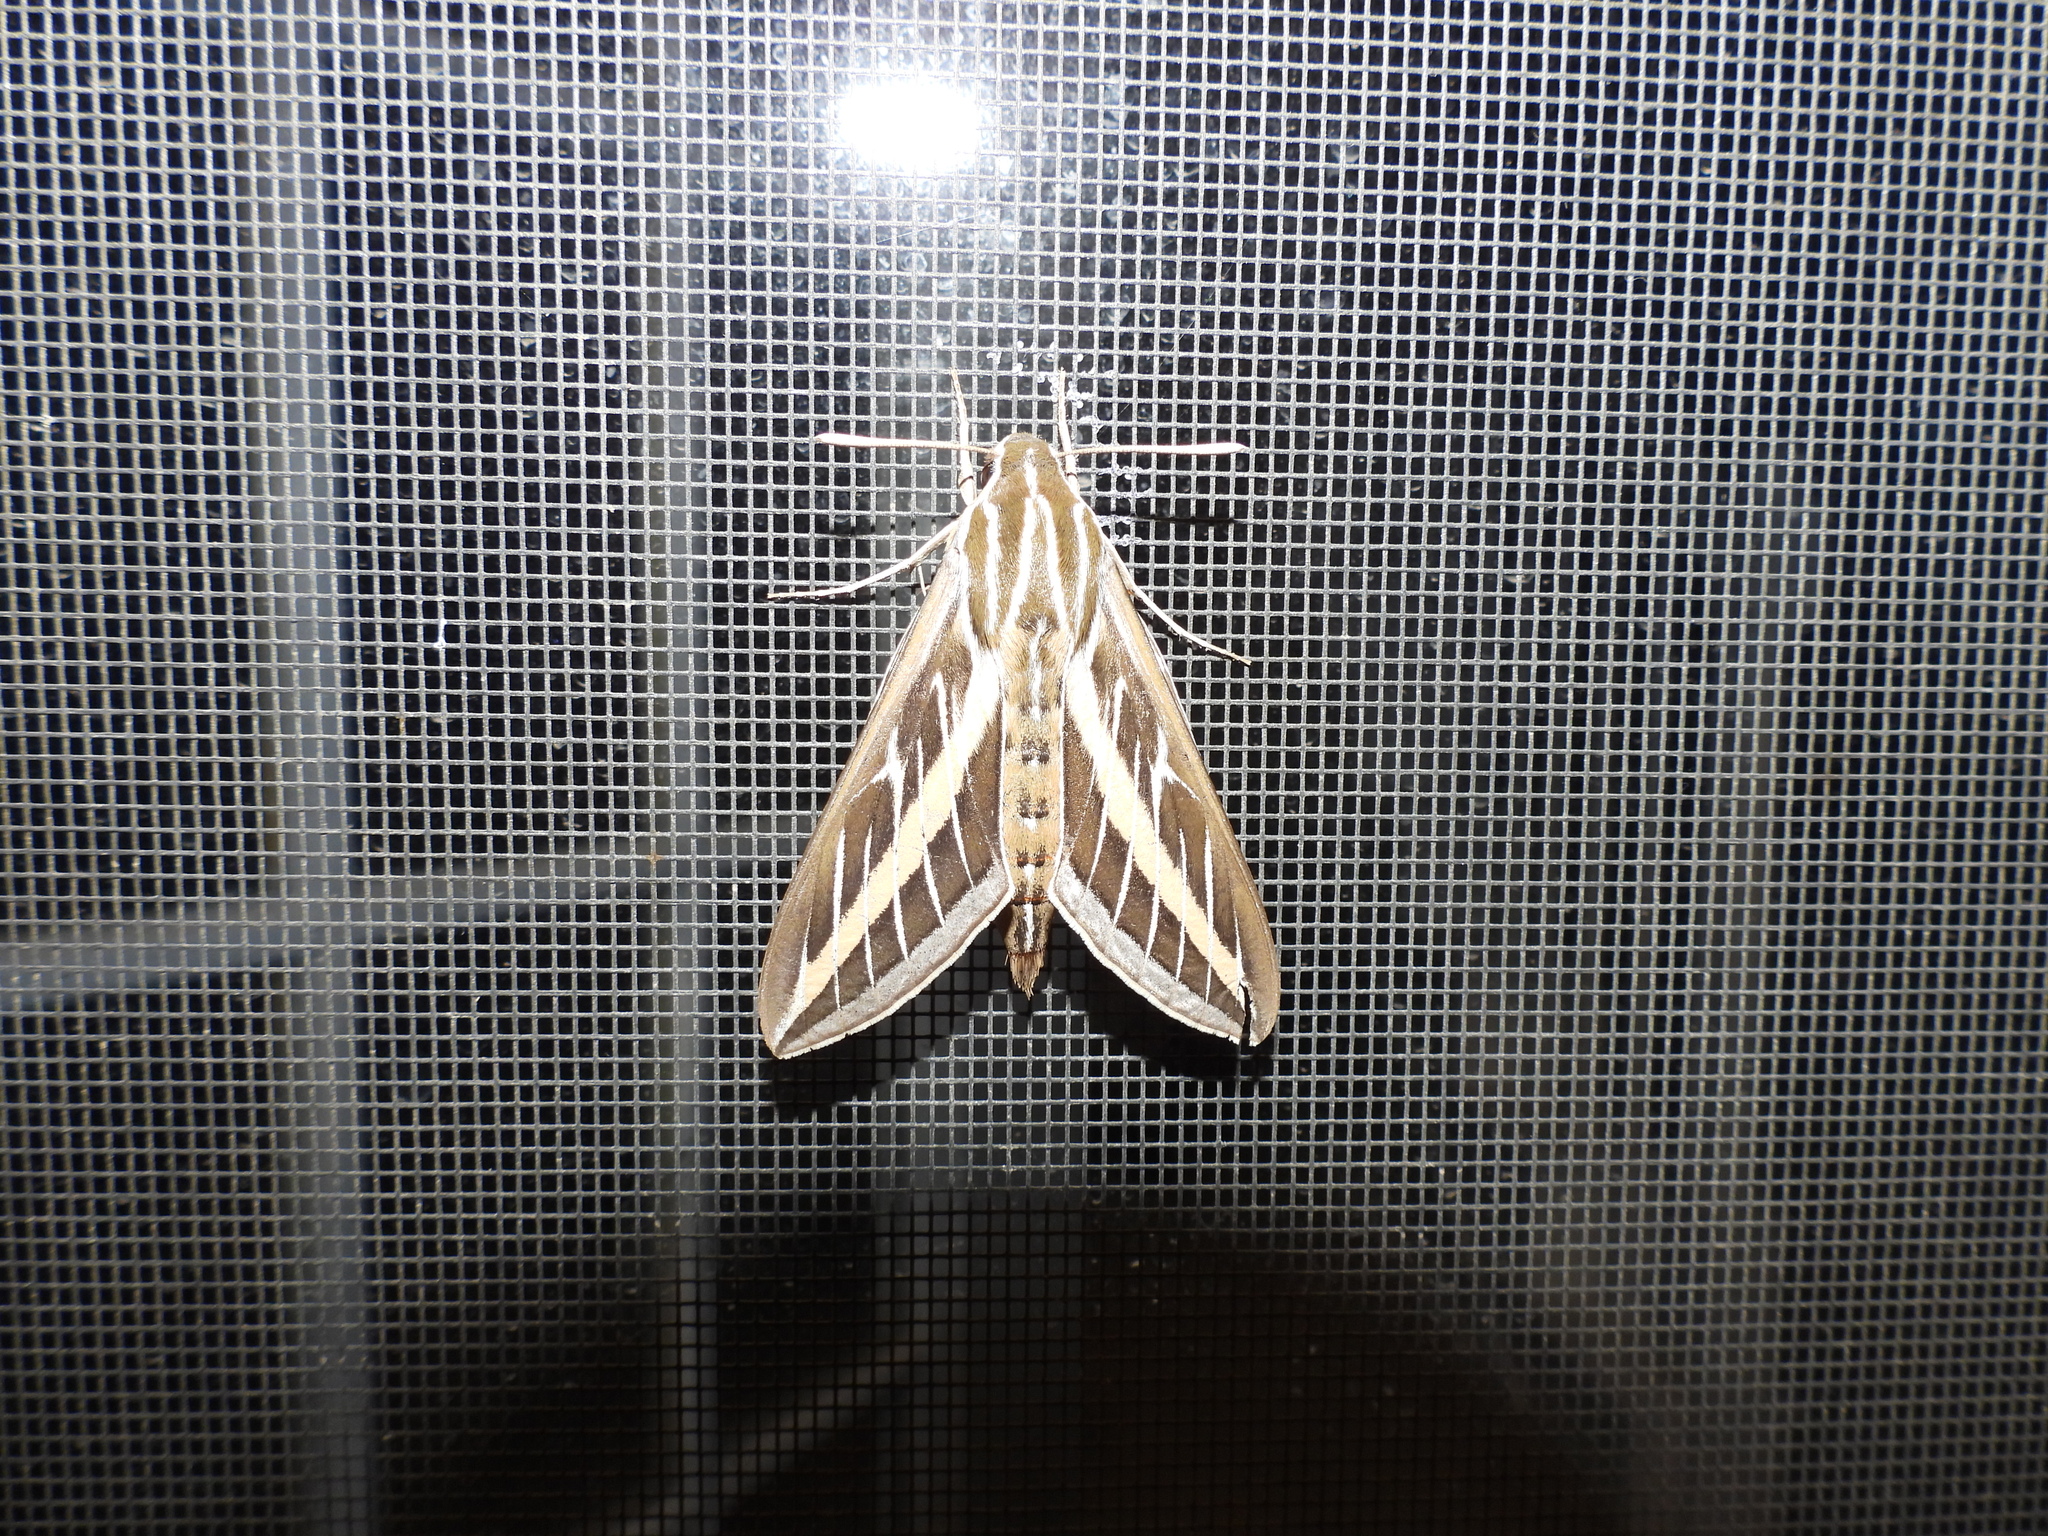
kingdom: Animalia
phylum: Arthropoda
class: Insecta
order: Lepidoptera
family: Sphingidae
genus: Hyles
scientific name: Hyles lineata
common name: White-lined sphinx
